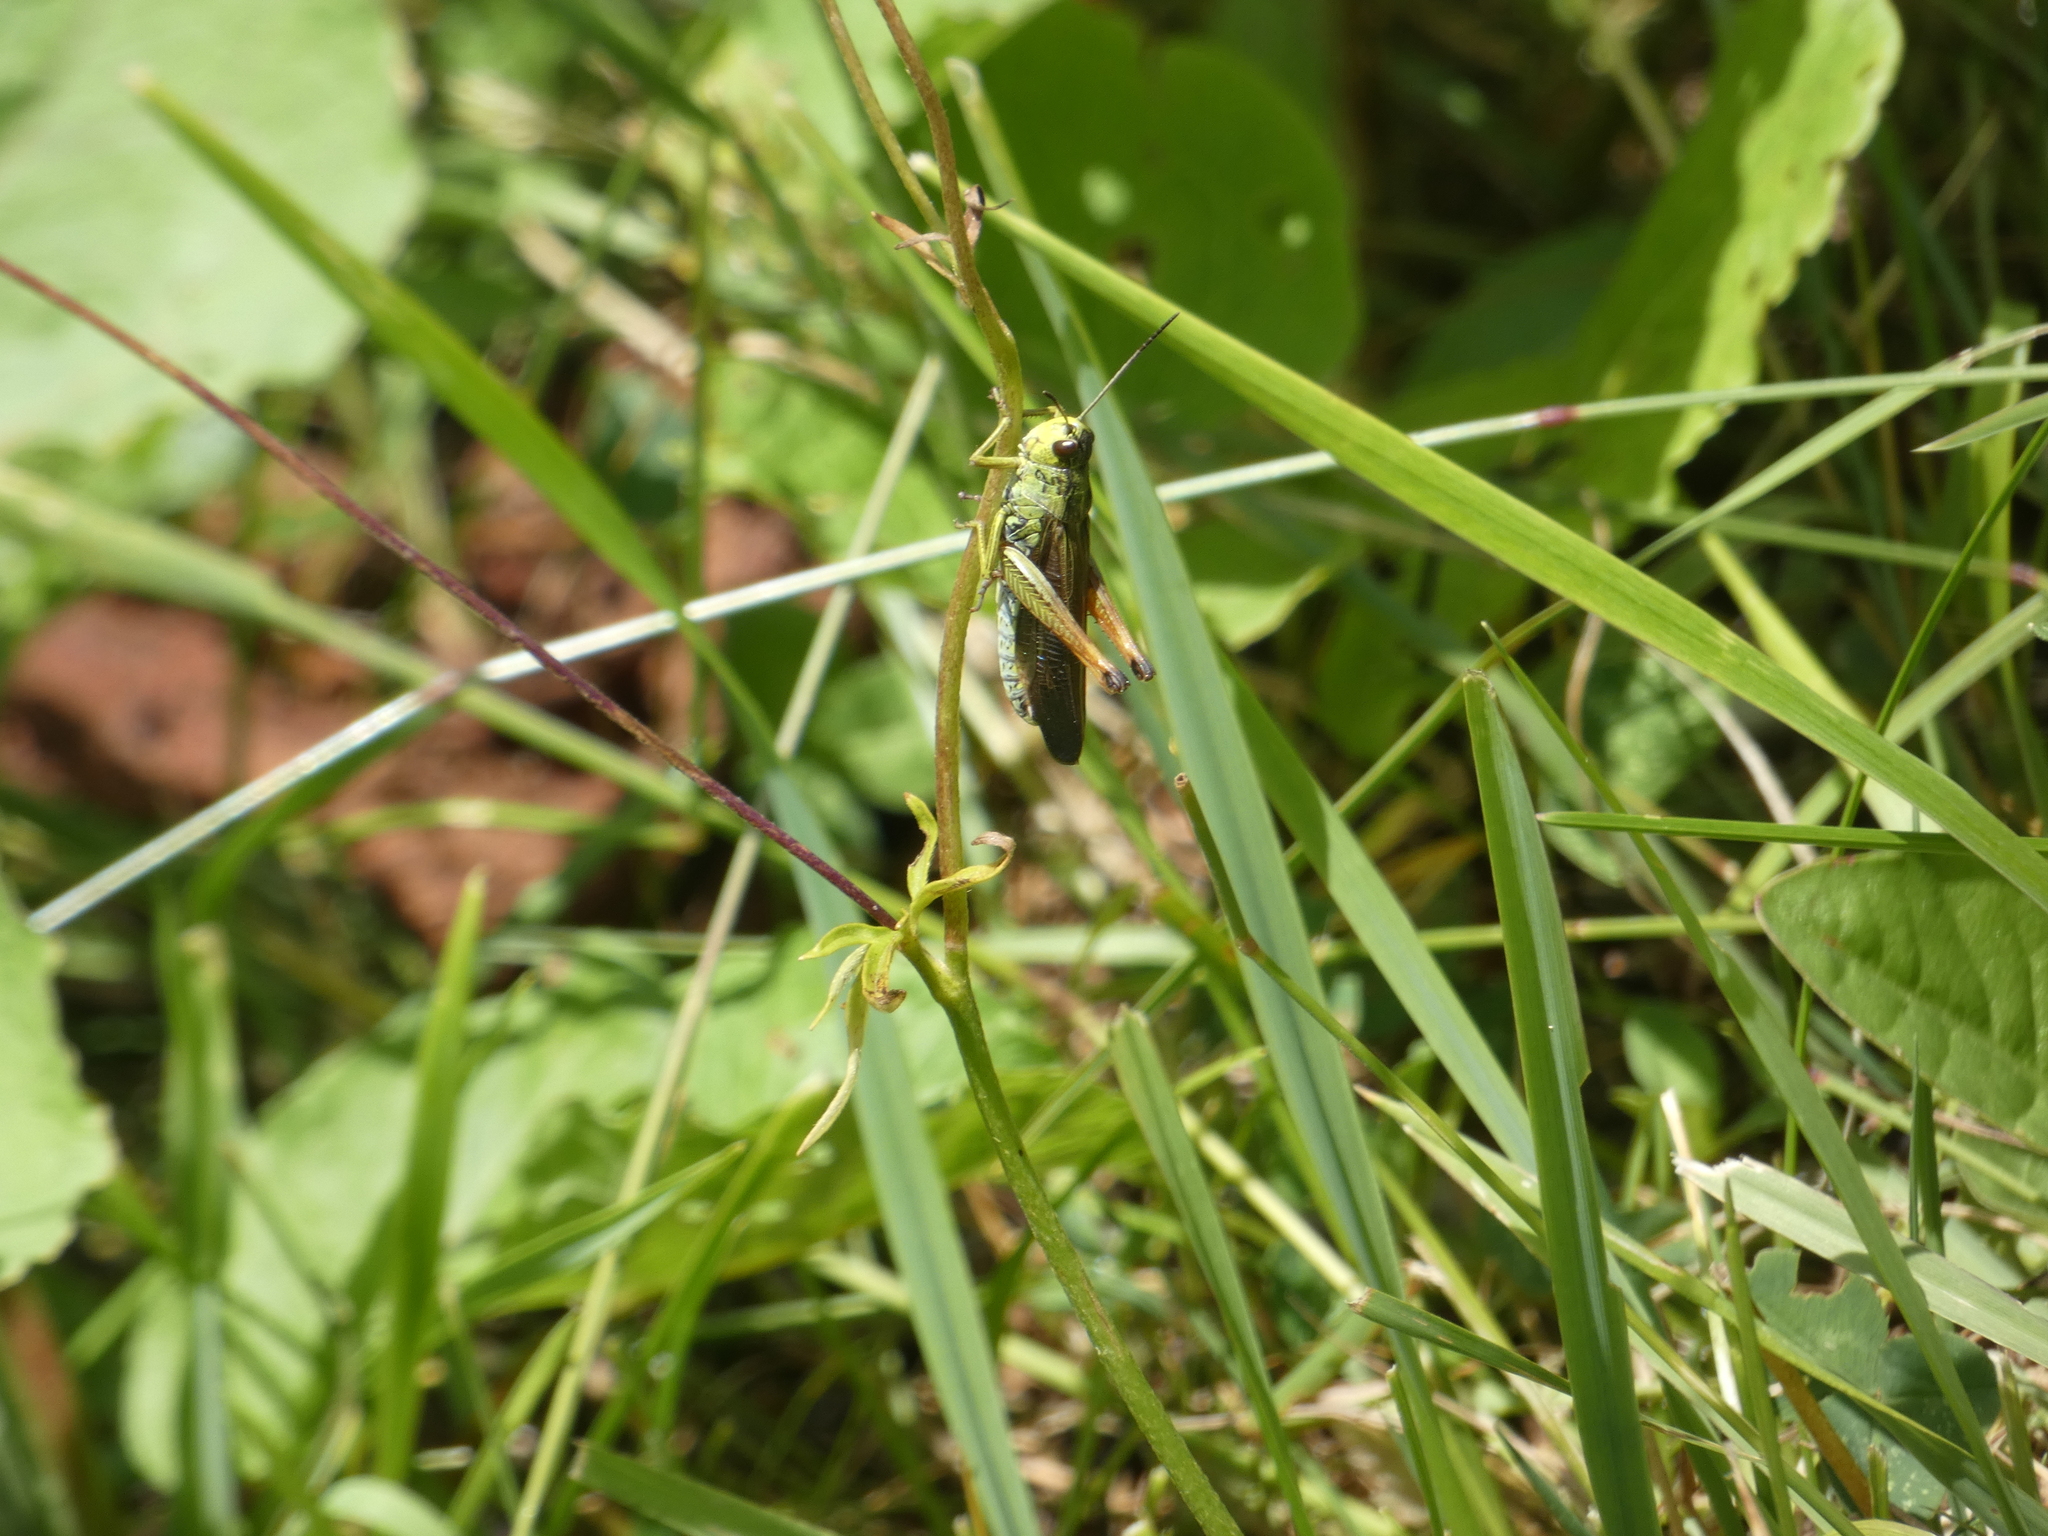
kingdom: Animalia
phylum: Arthropoda
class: Insecta
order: Orthoptera
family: Acrididae
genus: Stauroderus
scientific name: Stauroderus scalaris
